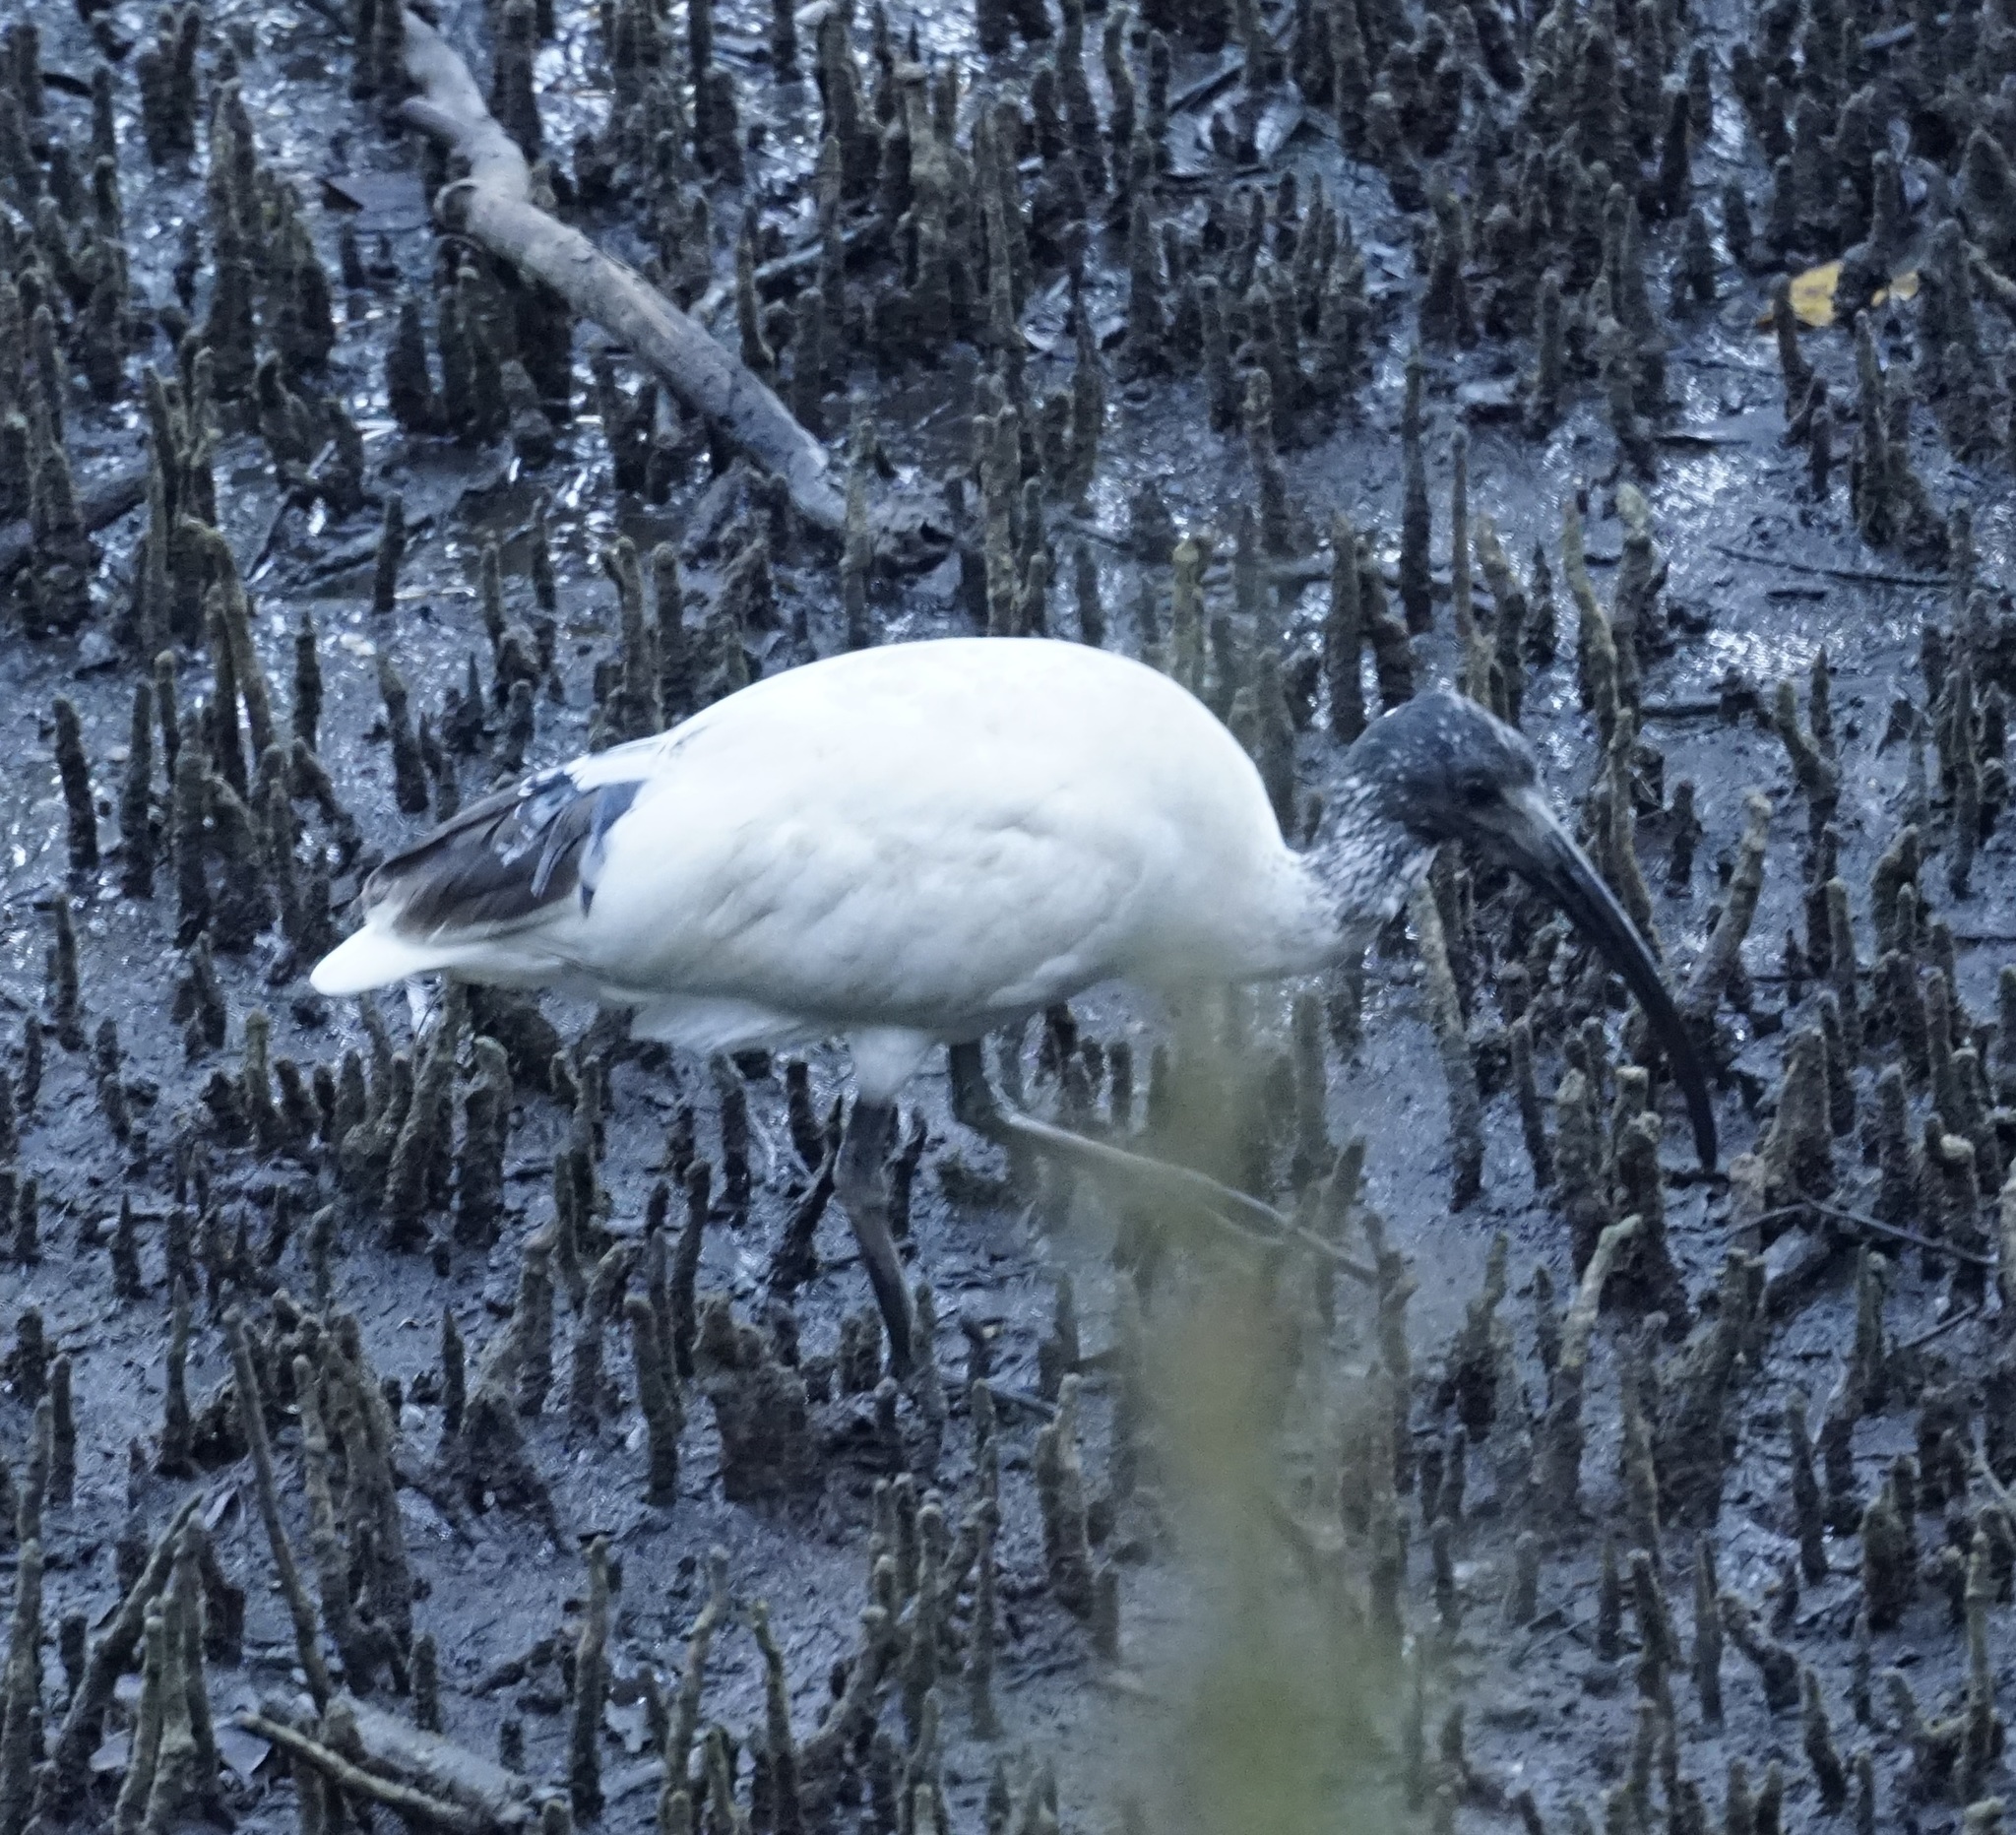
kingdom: Animalia
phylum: Chordata
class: Aves
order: Pelecaniformes
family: Threskiornithidae
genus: Threskiornis
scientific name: Threskiornis molucca
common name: Australian white ibis
